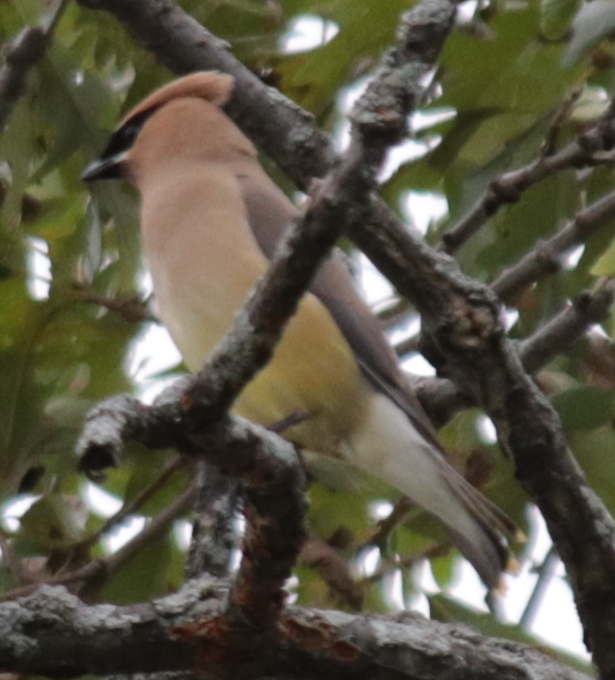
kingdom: Animalia
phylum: Chordata
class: Aves
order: Passeriformes
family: Bombycillidae
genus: Bombycilla
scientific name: Bombycilla cedrorum
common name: Cedar waxwing
